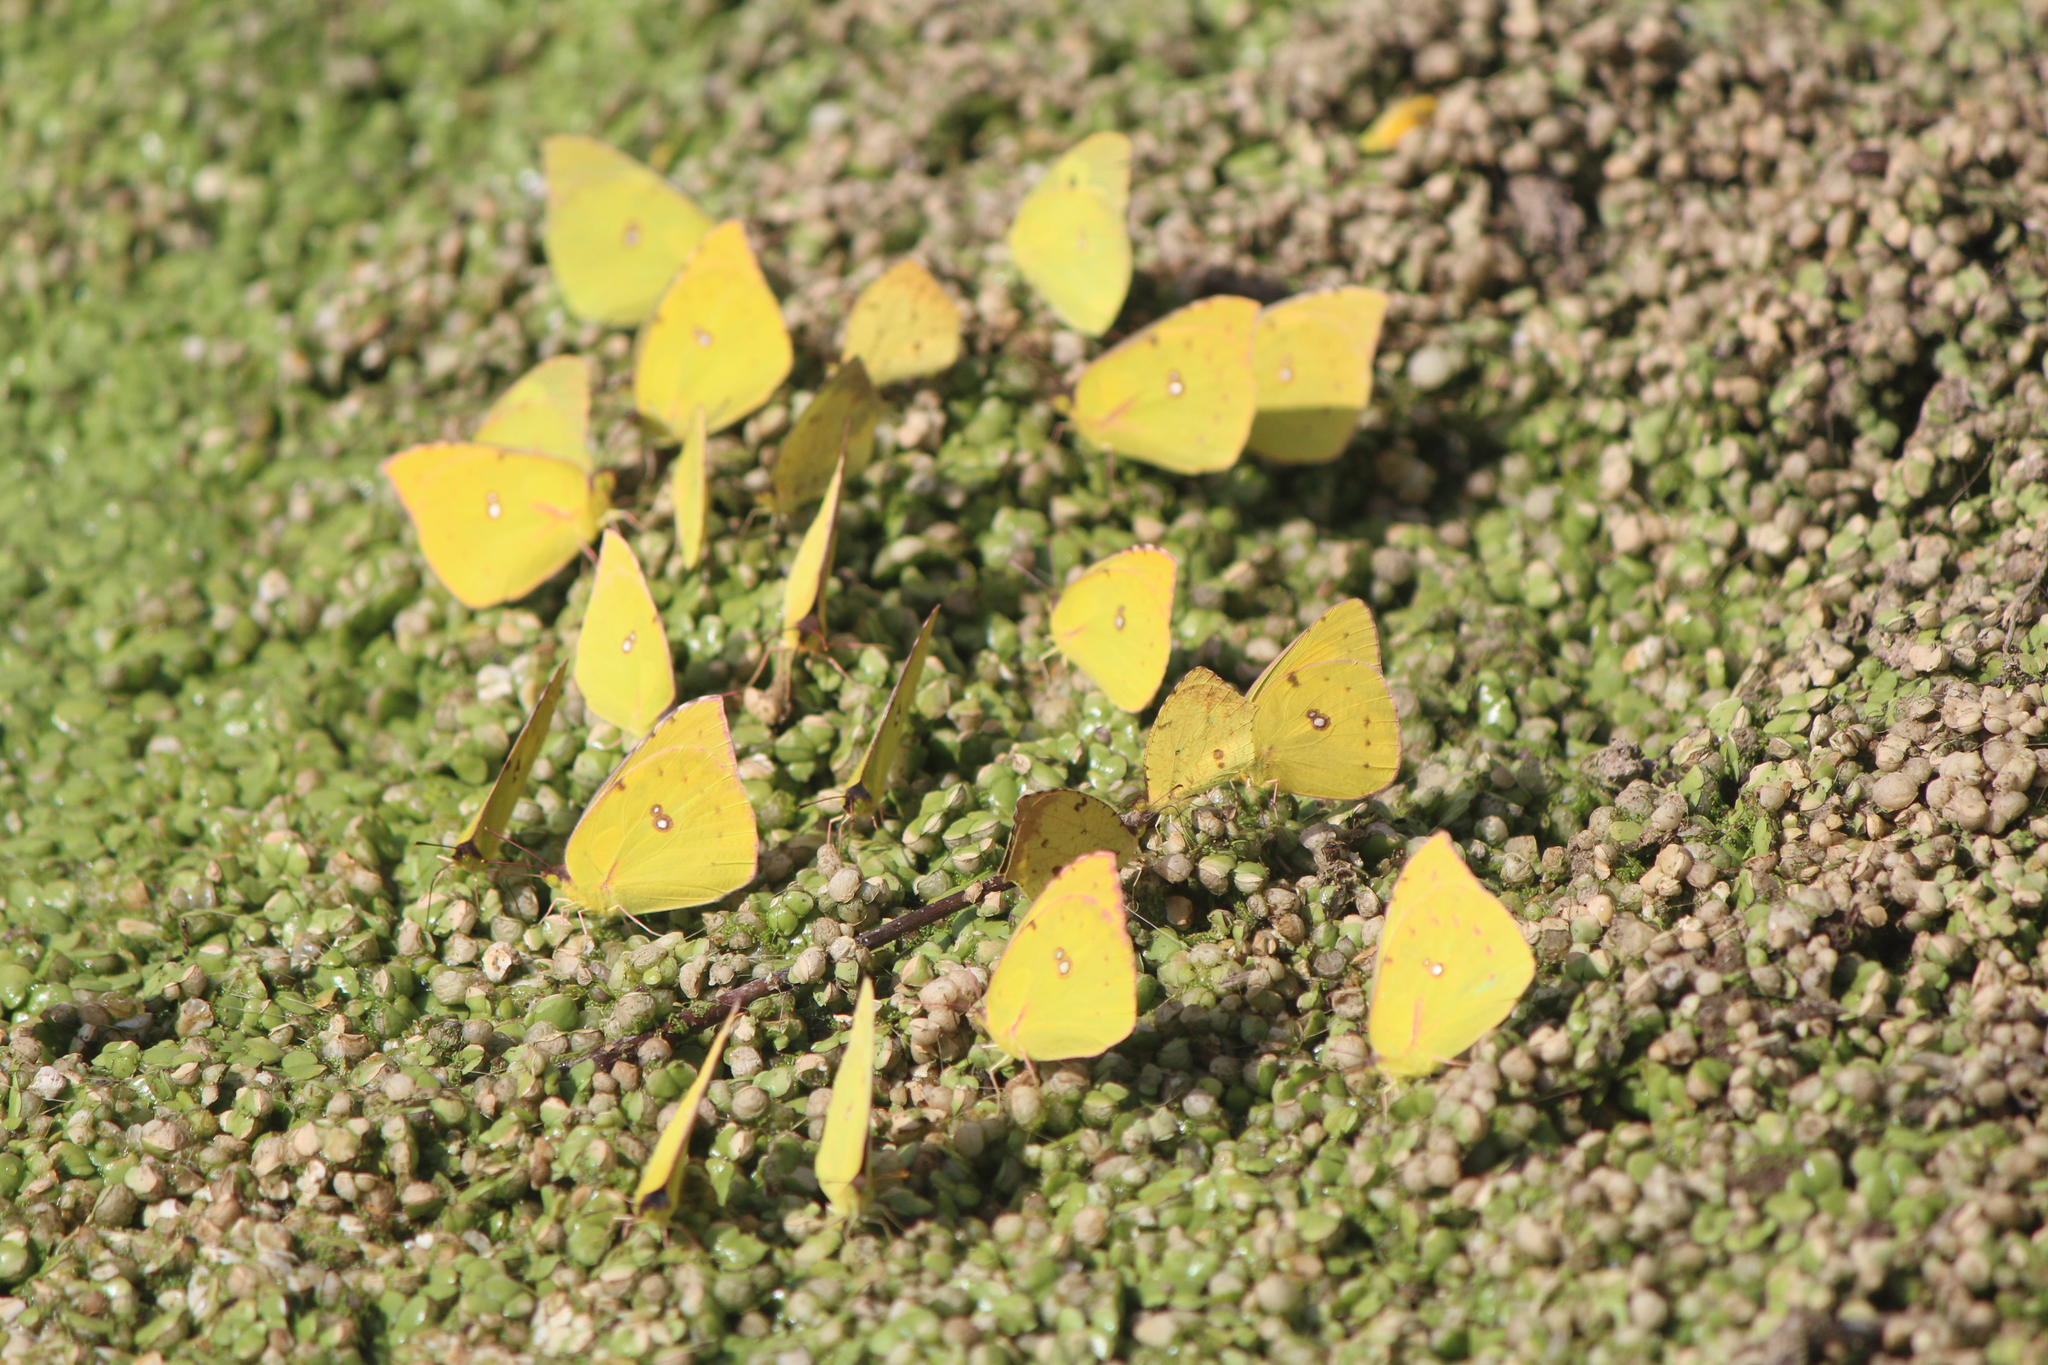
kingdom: Animalia
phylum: Arthropoda
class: Insecta
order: Lepidoptera
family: Pieridae
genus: Zerene
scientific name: Zerene cesonia
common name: Southern dogface
